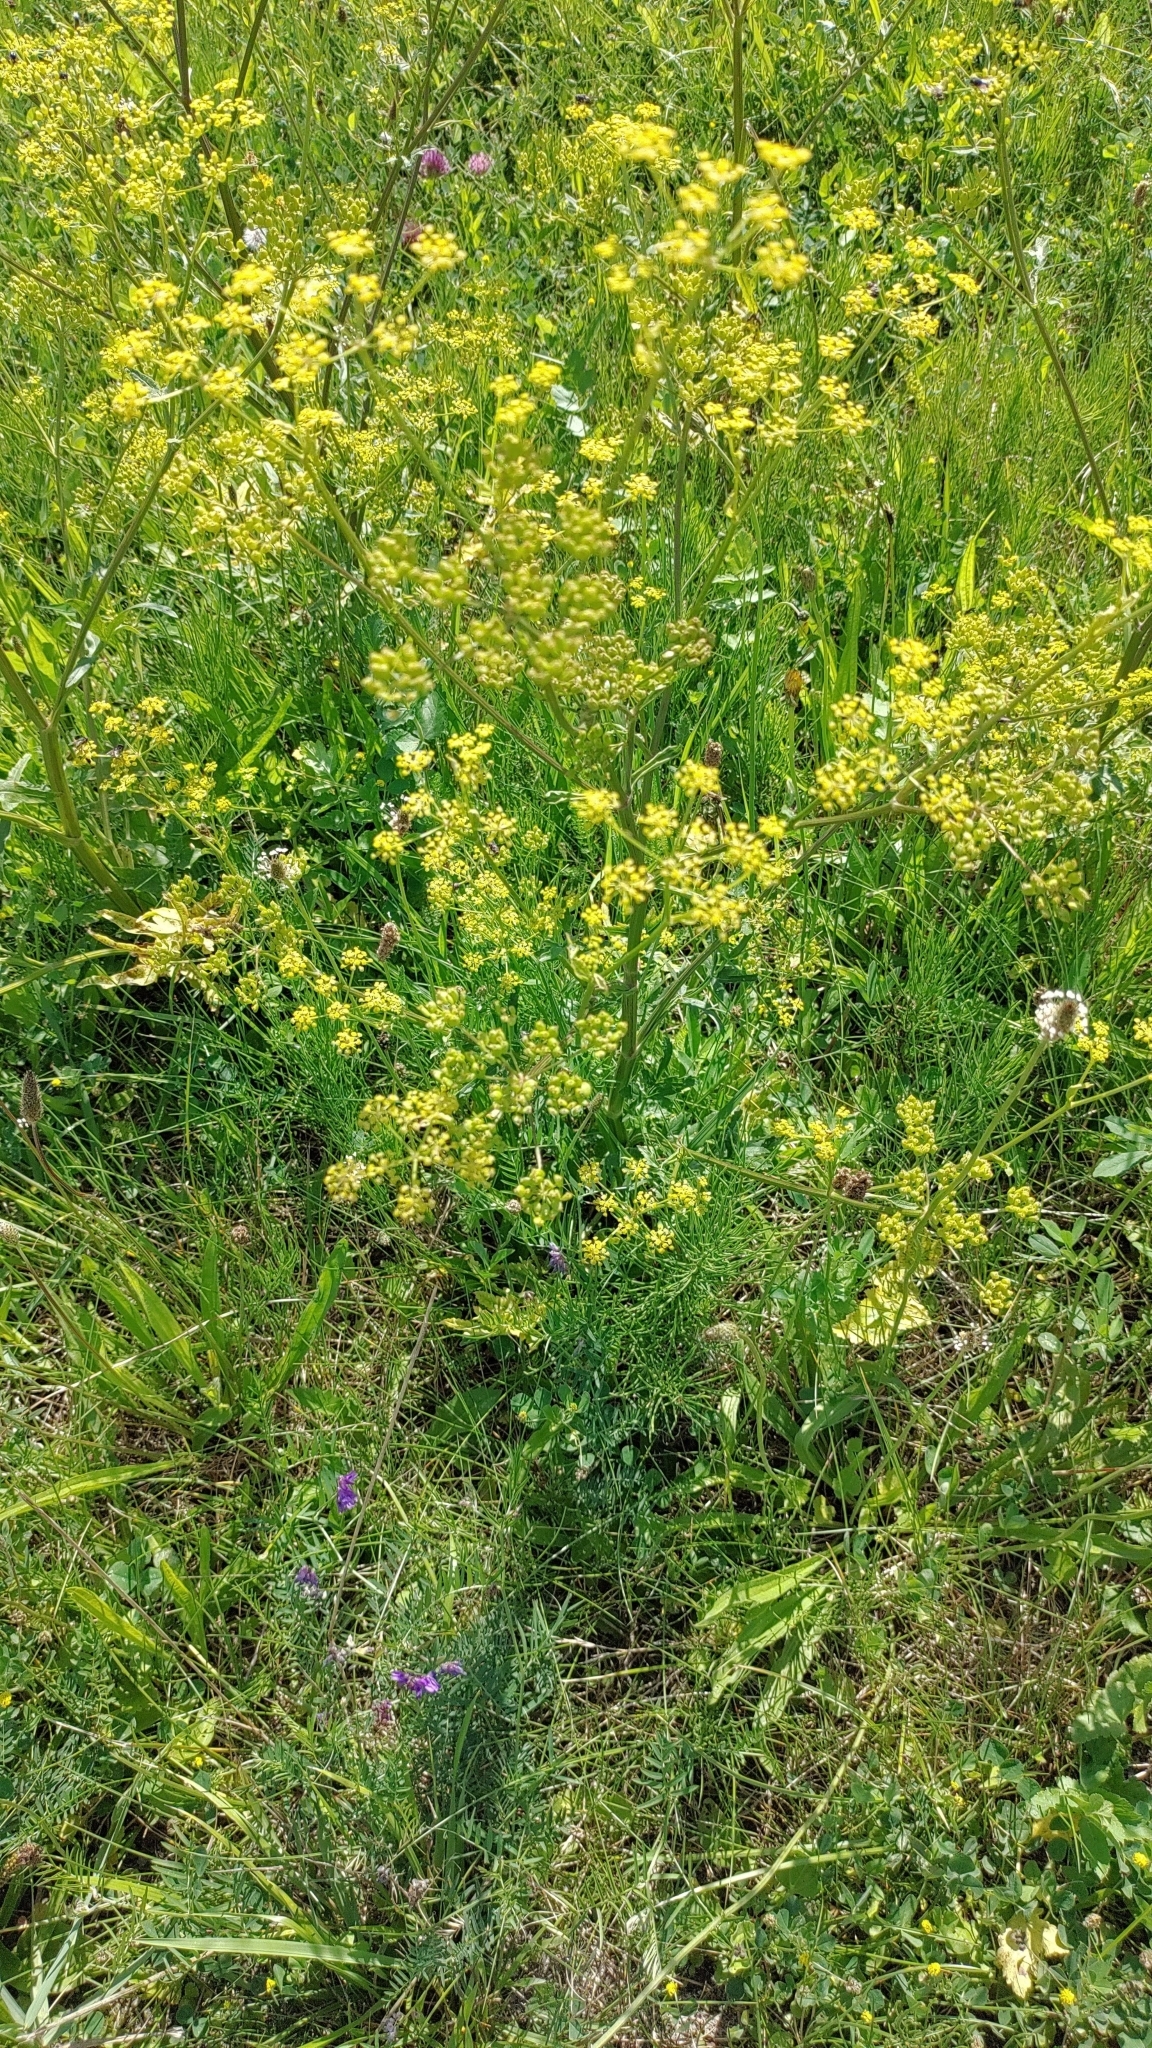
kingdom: Plantae
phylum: Tracheophyta
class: Magnoliopsida
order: Apiales
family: Apiaceae
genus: Pastinaca
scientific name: Pastinaca sativa
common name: Wild parsnip
